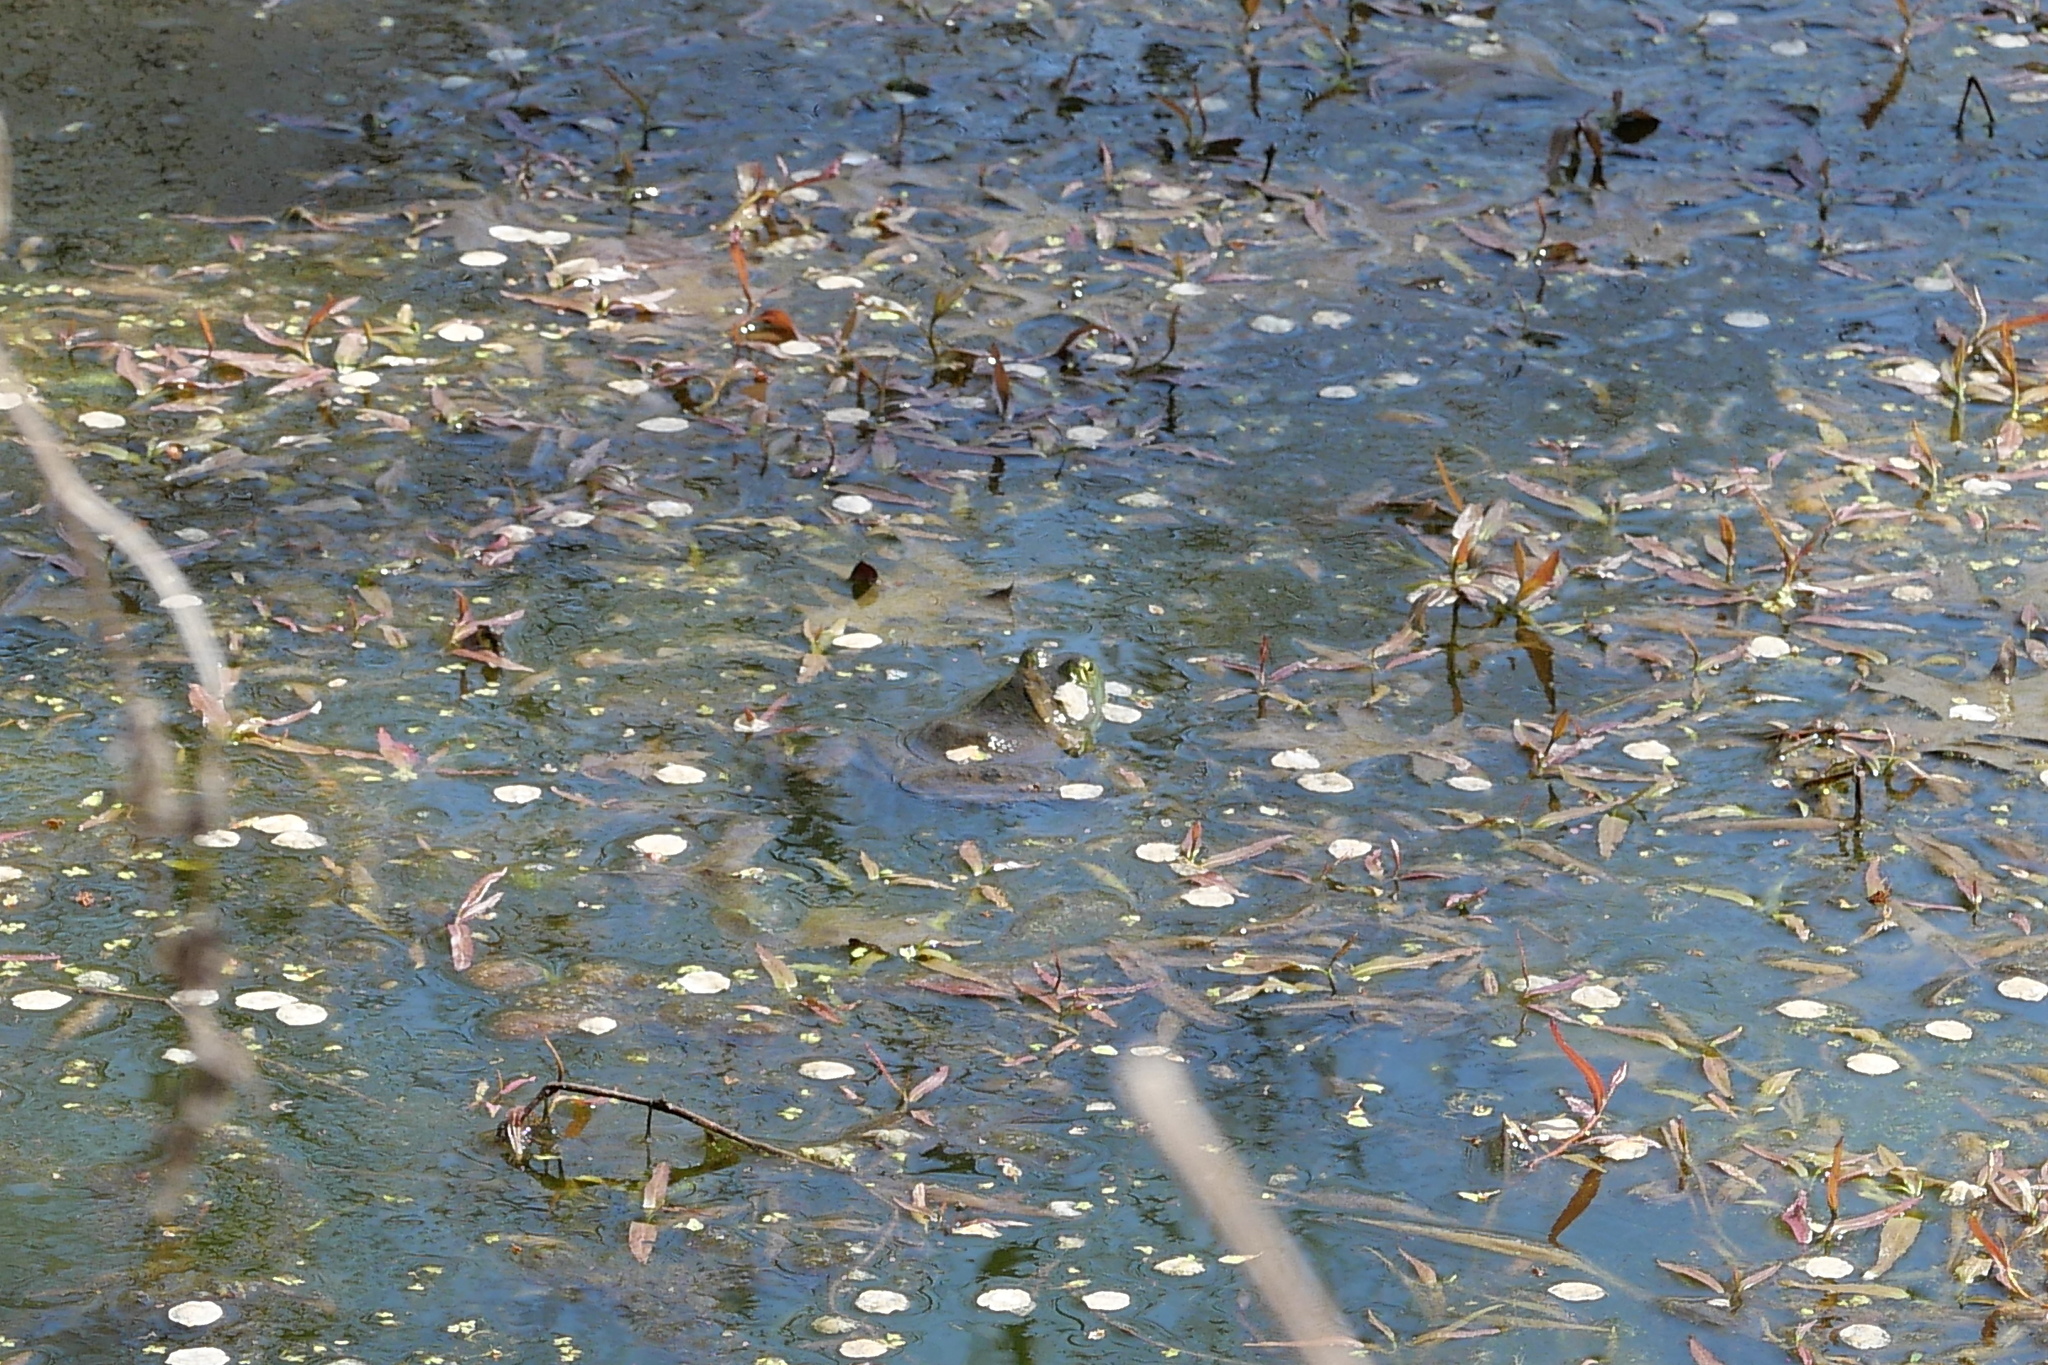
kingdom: Animalia
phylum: Chordata
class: Amphibia
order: Anura
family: Ranidae
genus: Lithobates
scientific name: Lithobates catesbeianus
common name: American bullfrog
